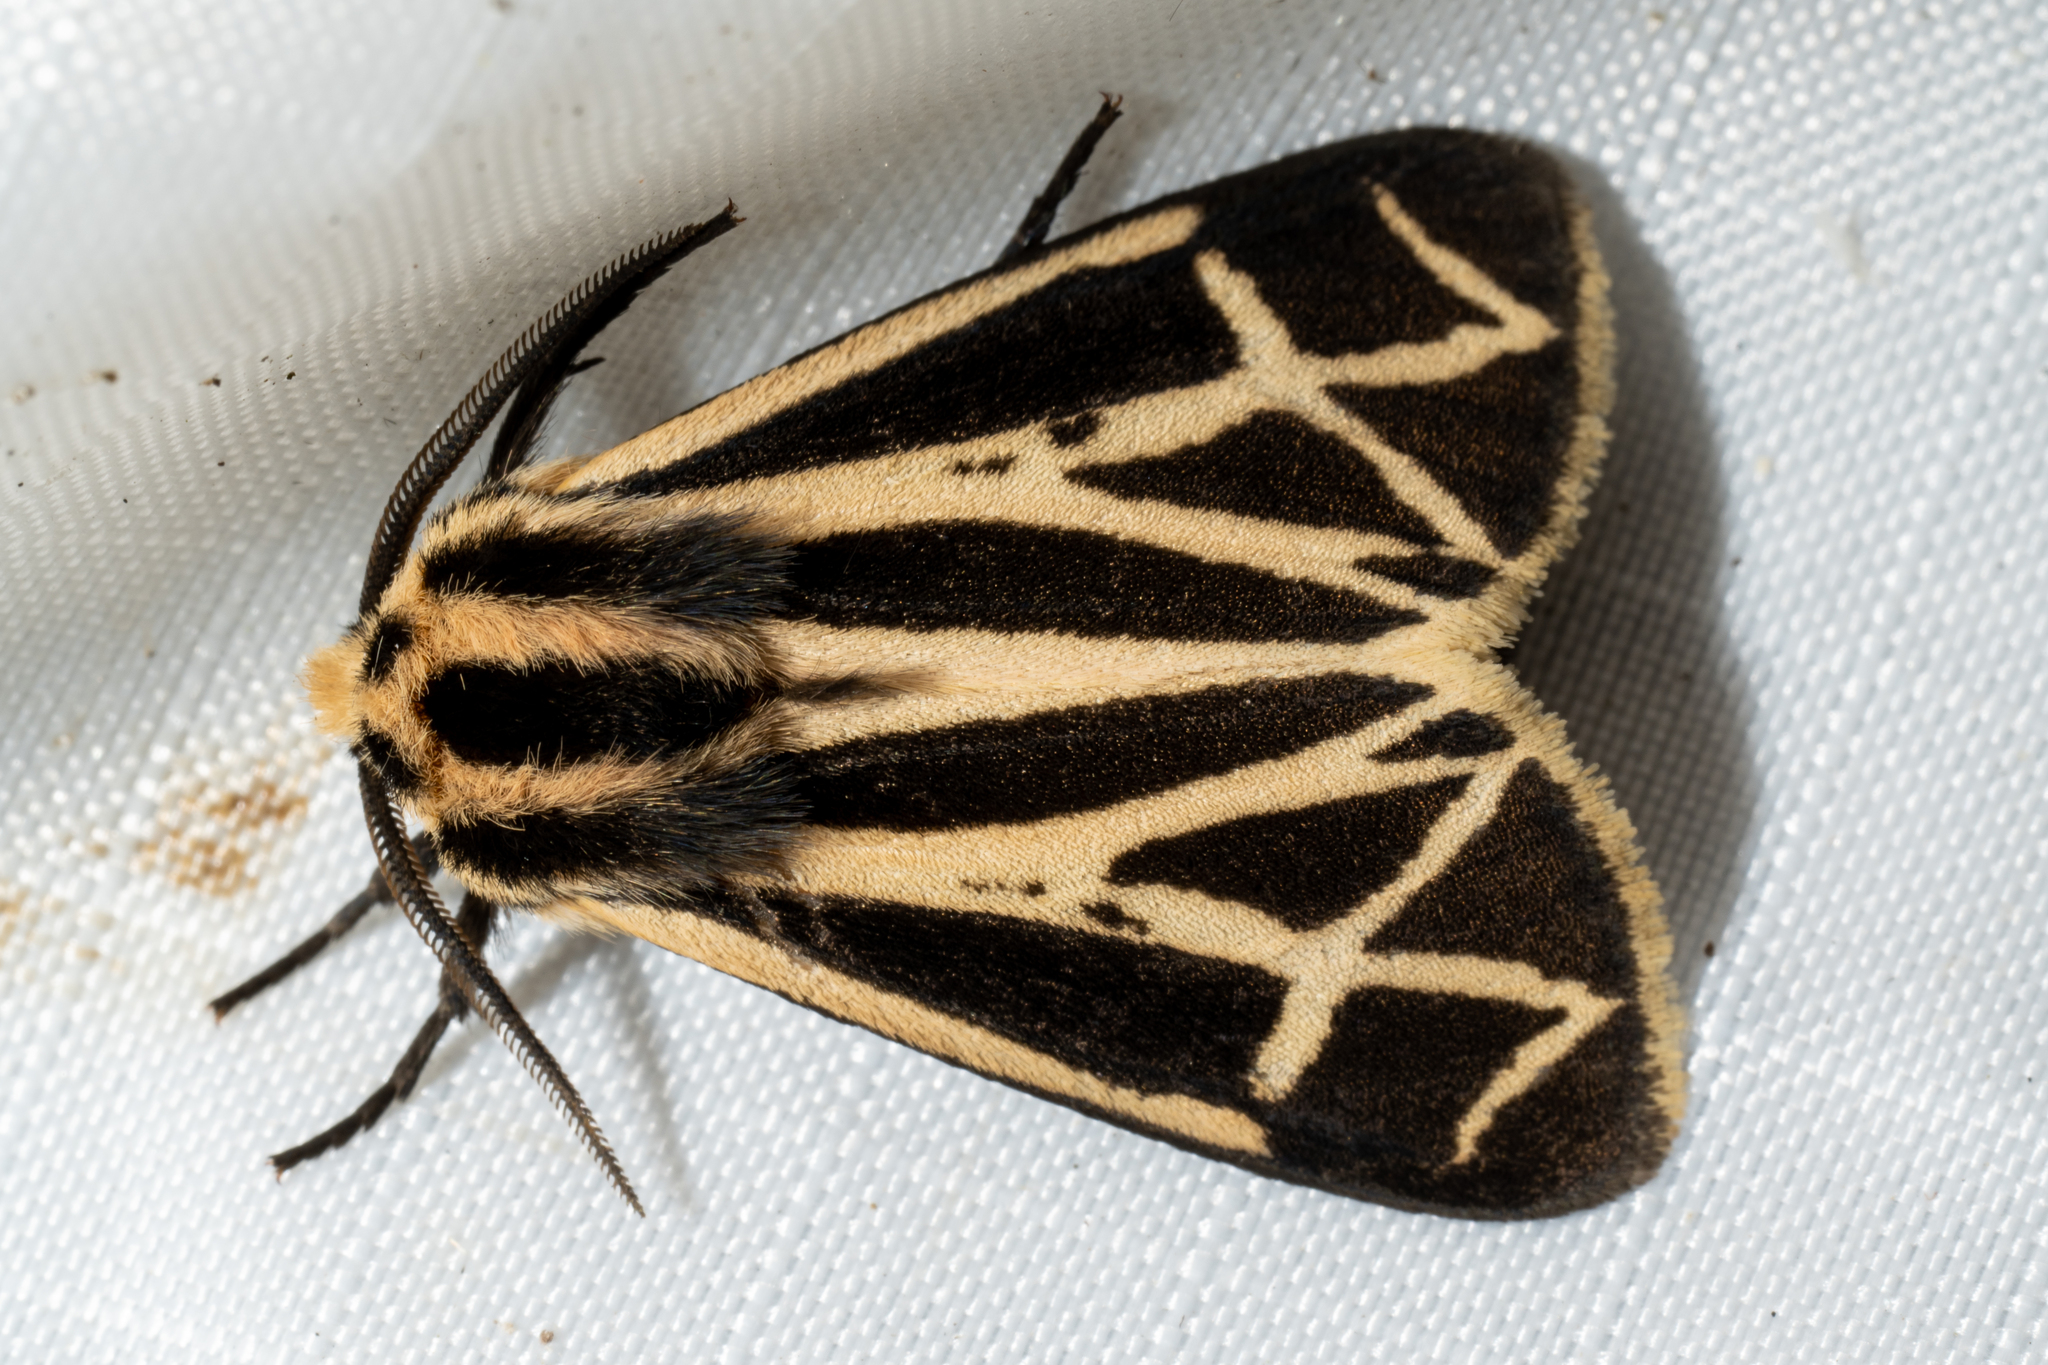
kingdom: Animalia
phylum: Arthropoda
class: Insecta
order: Lepidoptera
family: Erebidae
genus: Apantesis
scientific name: Apantesis phalerata
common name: Harnessed tiger moth
